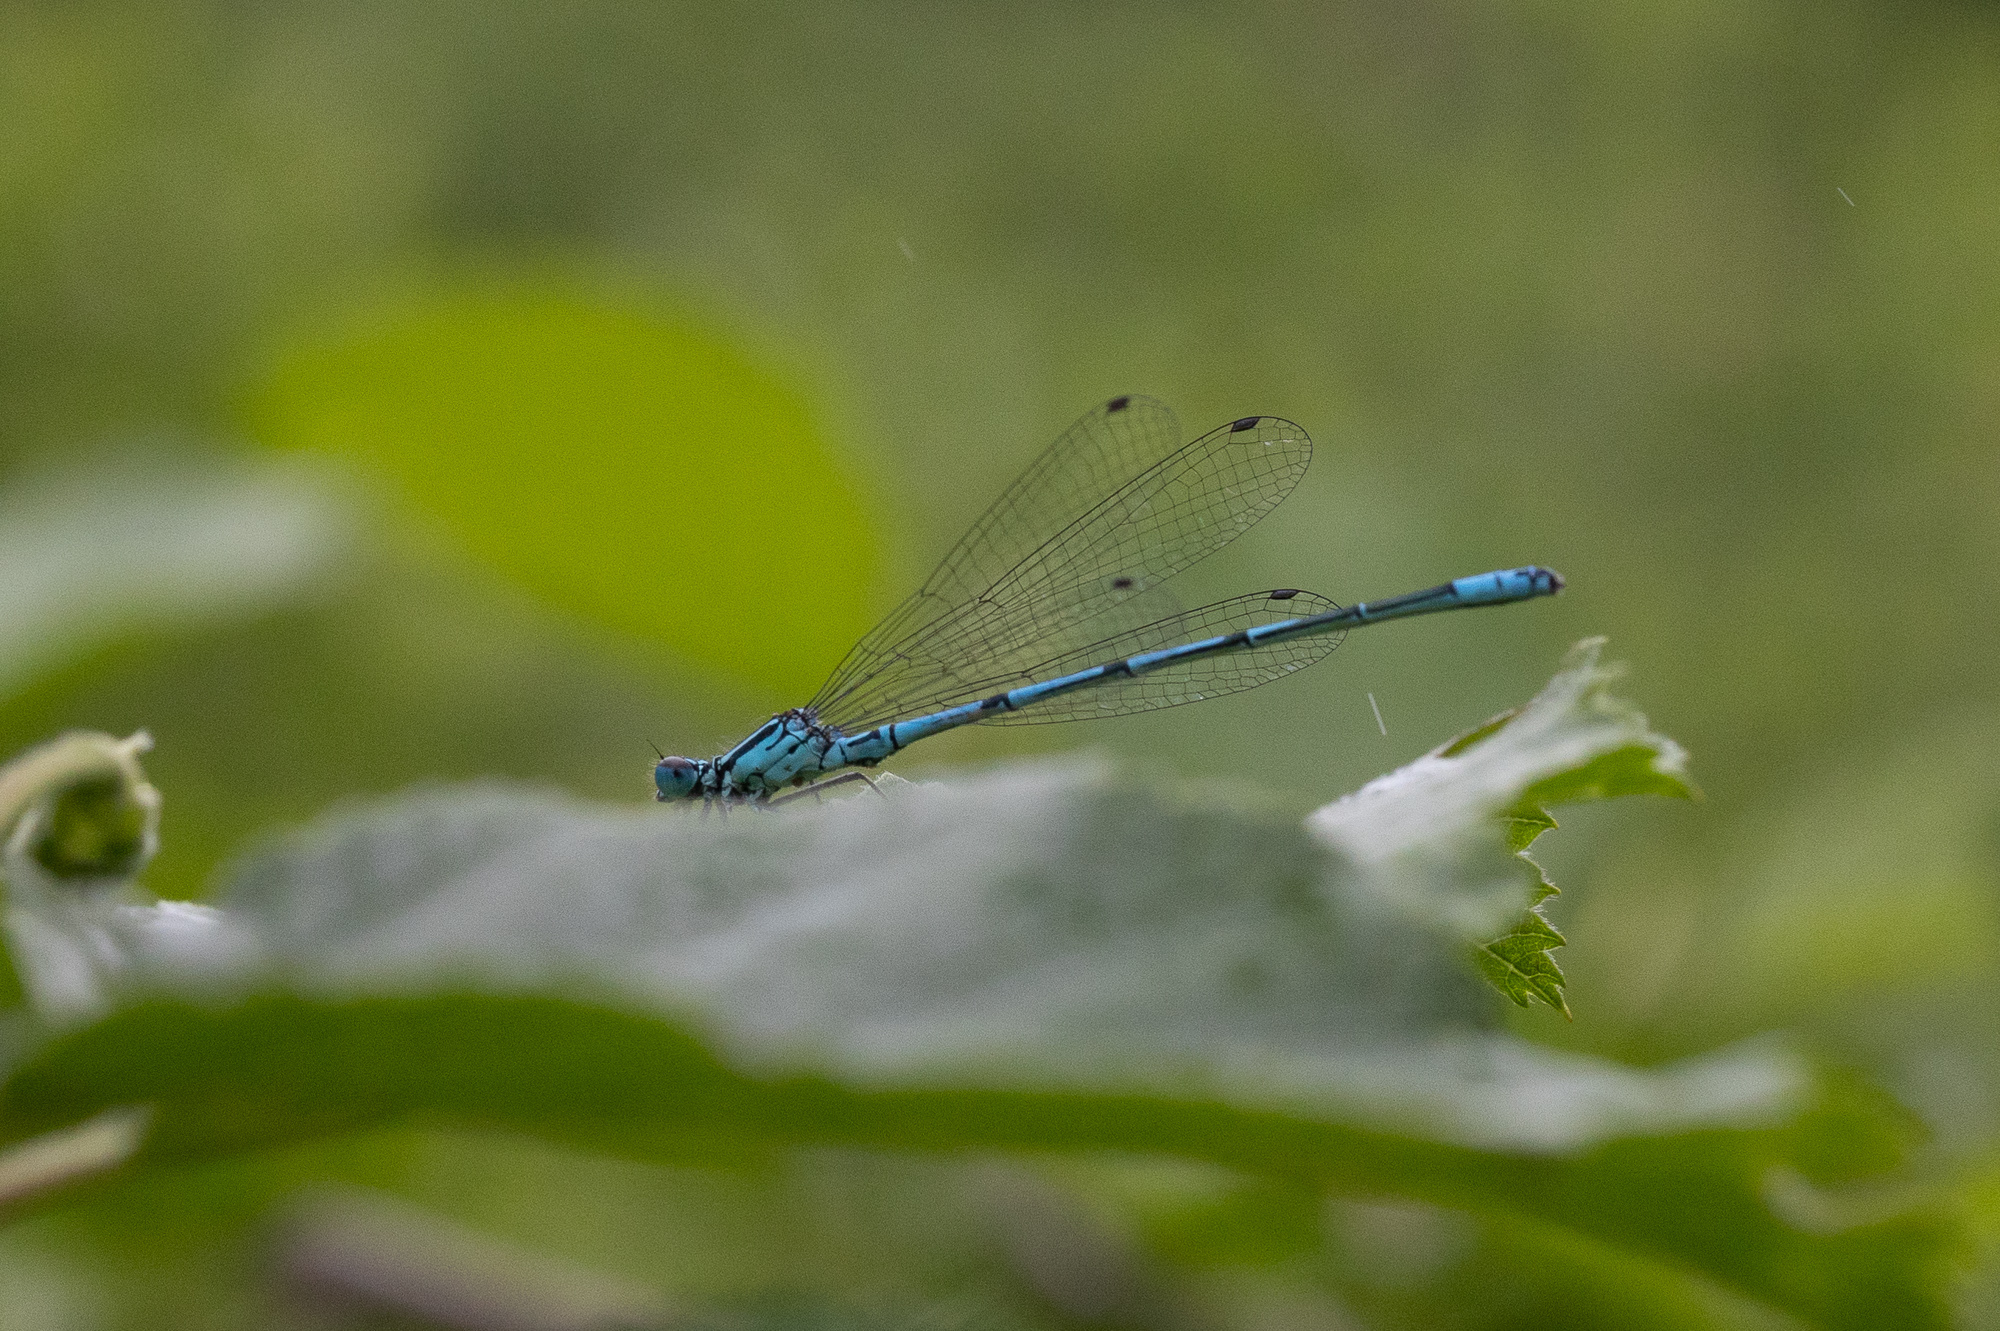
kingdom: Animalia
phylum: Arthropoda
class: Insecta
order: Odonata
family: Coenagrionidae
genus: Coenagrion
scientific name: Coenagrion puella
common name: Azure damselfly
